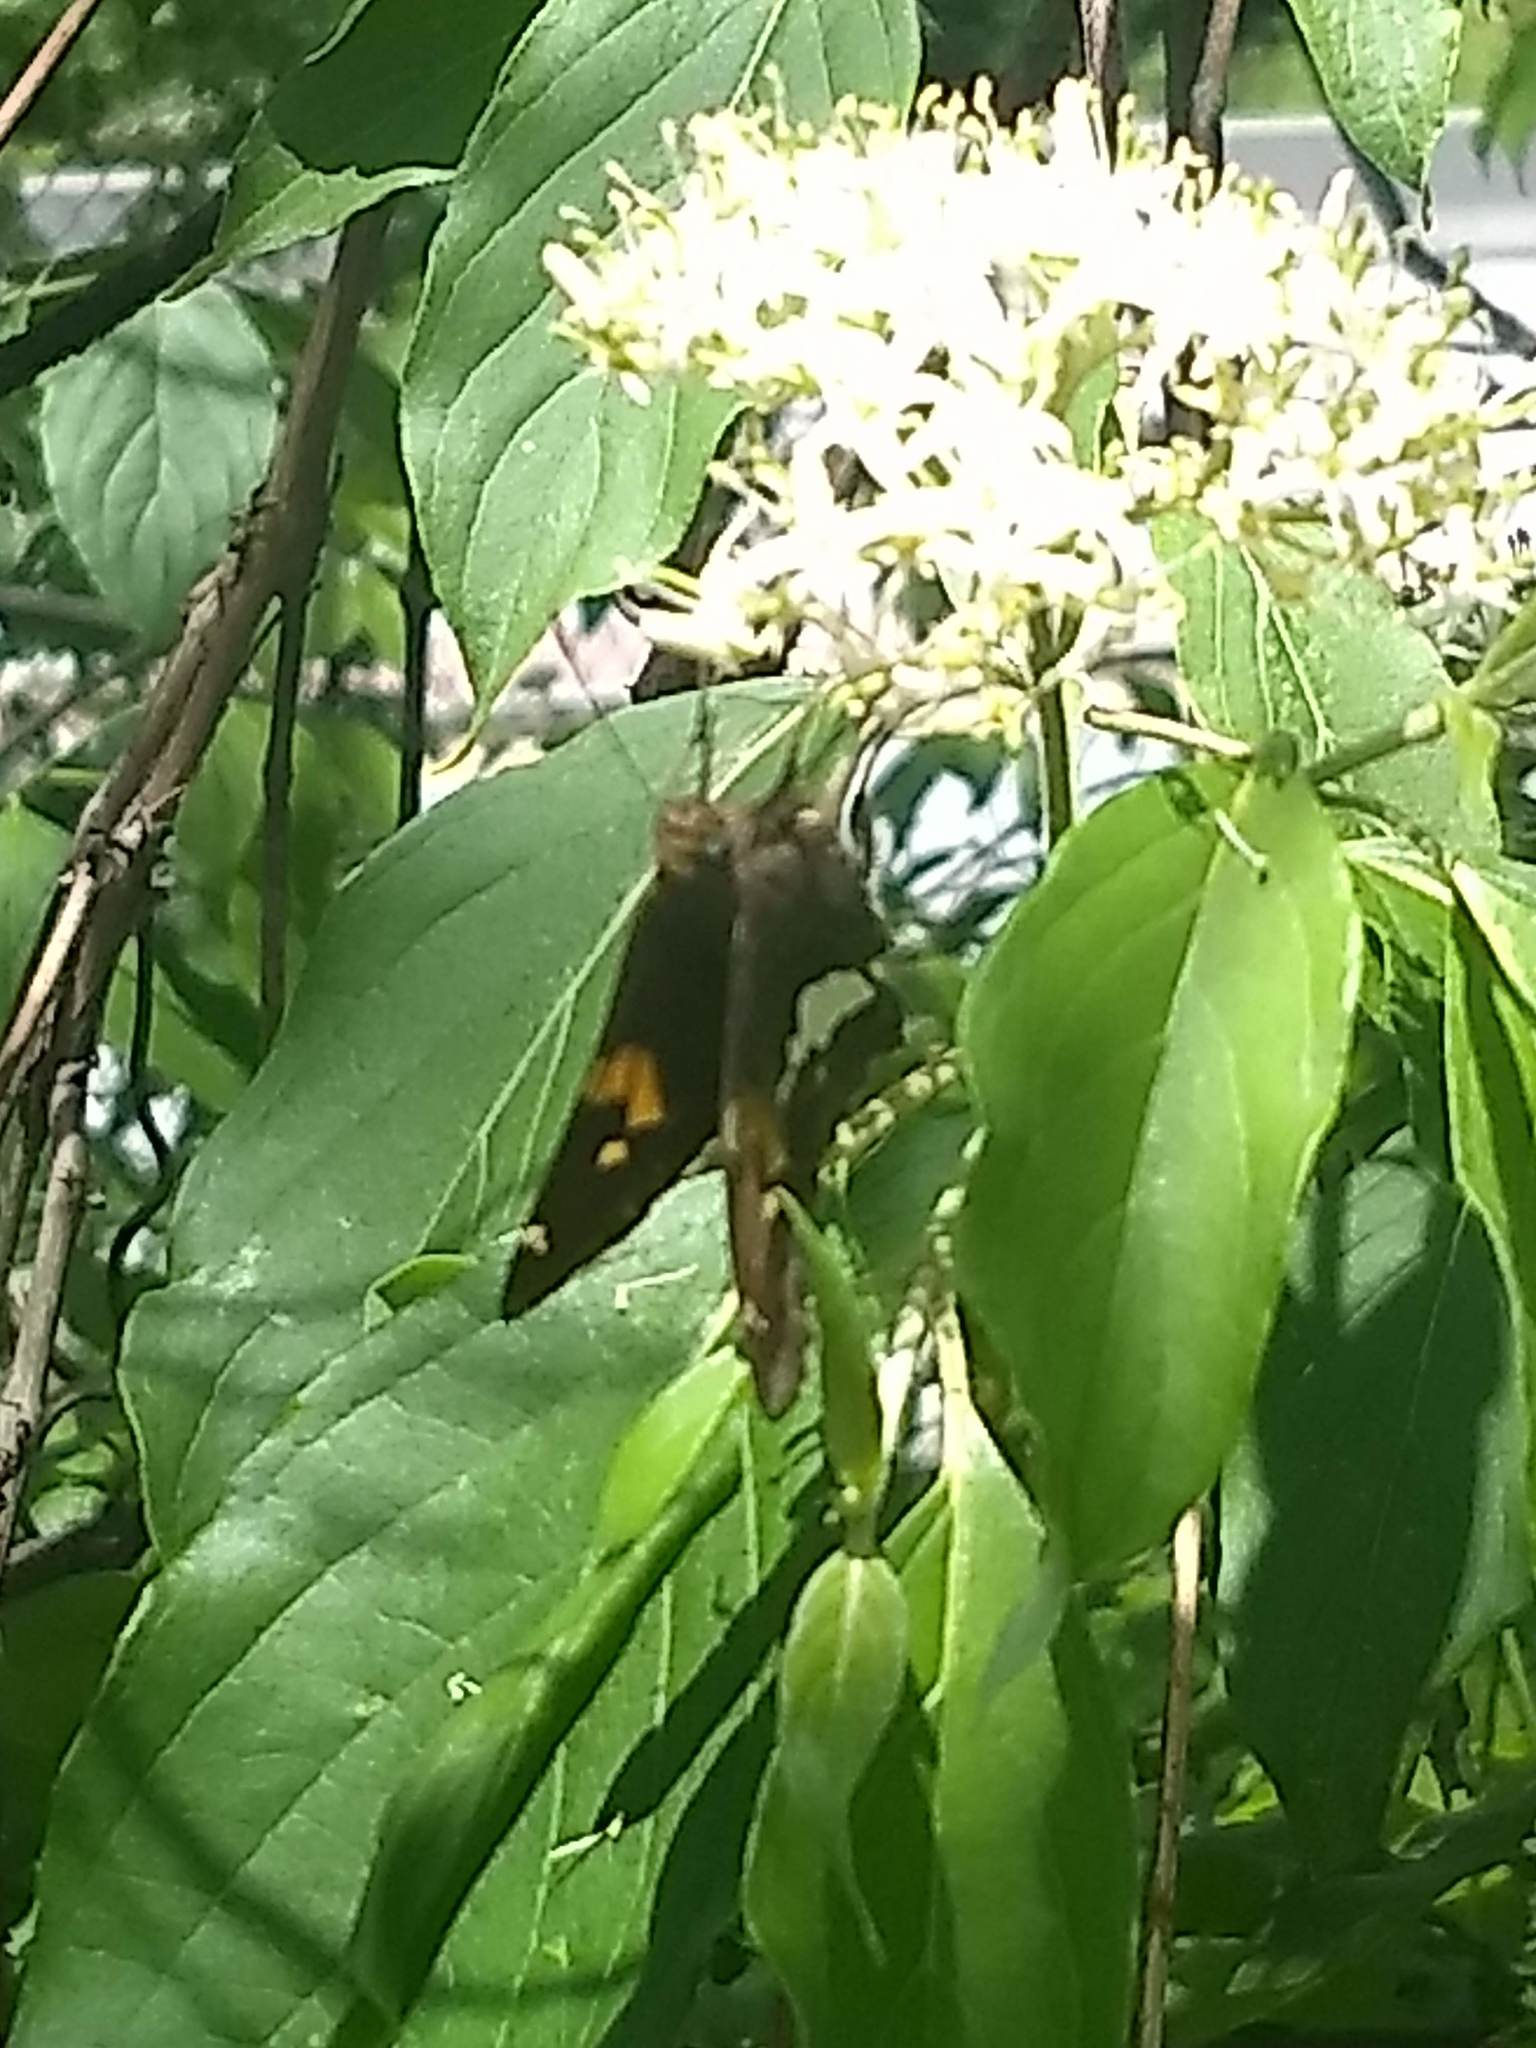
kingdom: Animalia
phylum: Arthropoda
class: Insecta
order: Lepidoptera
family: Hesperiidae
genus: Epargyreus
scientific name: Epargyreus clarus
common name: Silver-spotted skipper
